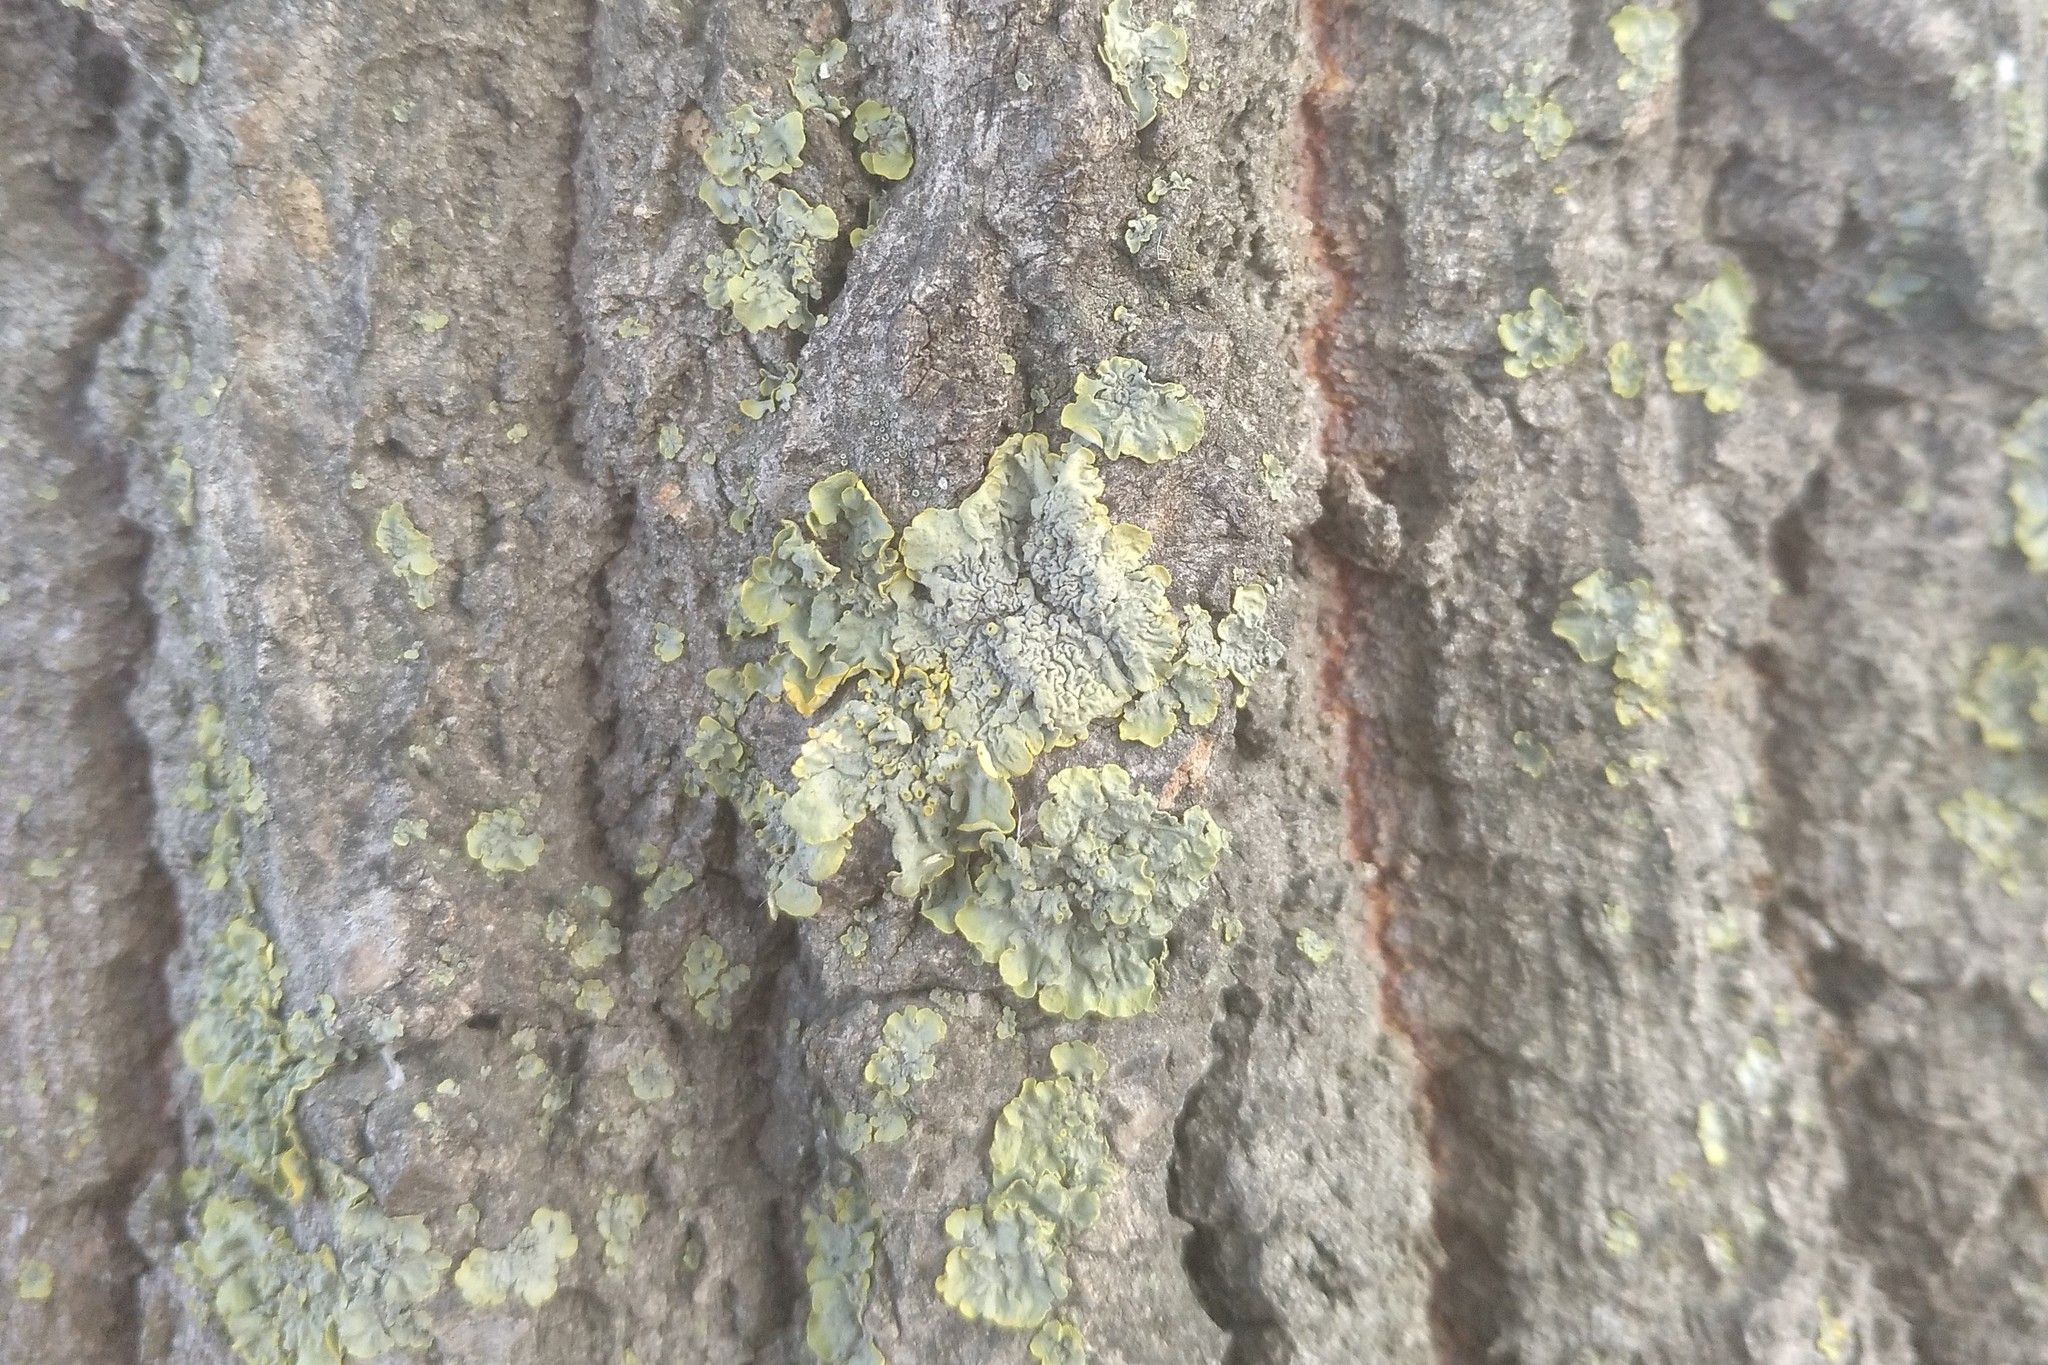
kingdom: Fungi
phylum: Ascomycota
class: Lecanoromycetes
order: Teloschistales
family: Teloschistaceae
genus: Xanthoria
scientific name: Xanthoria parietina
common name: Common orange lichen
